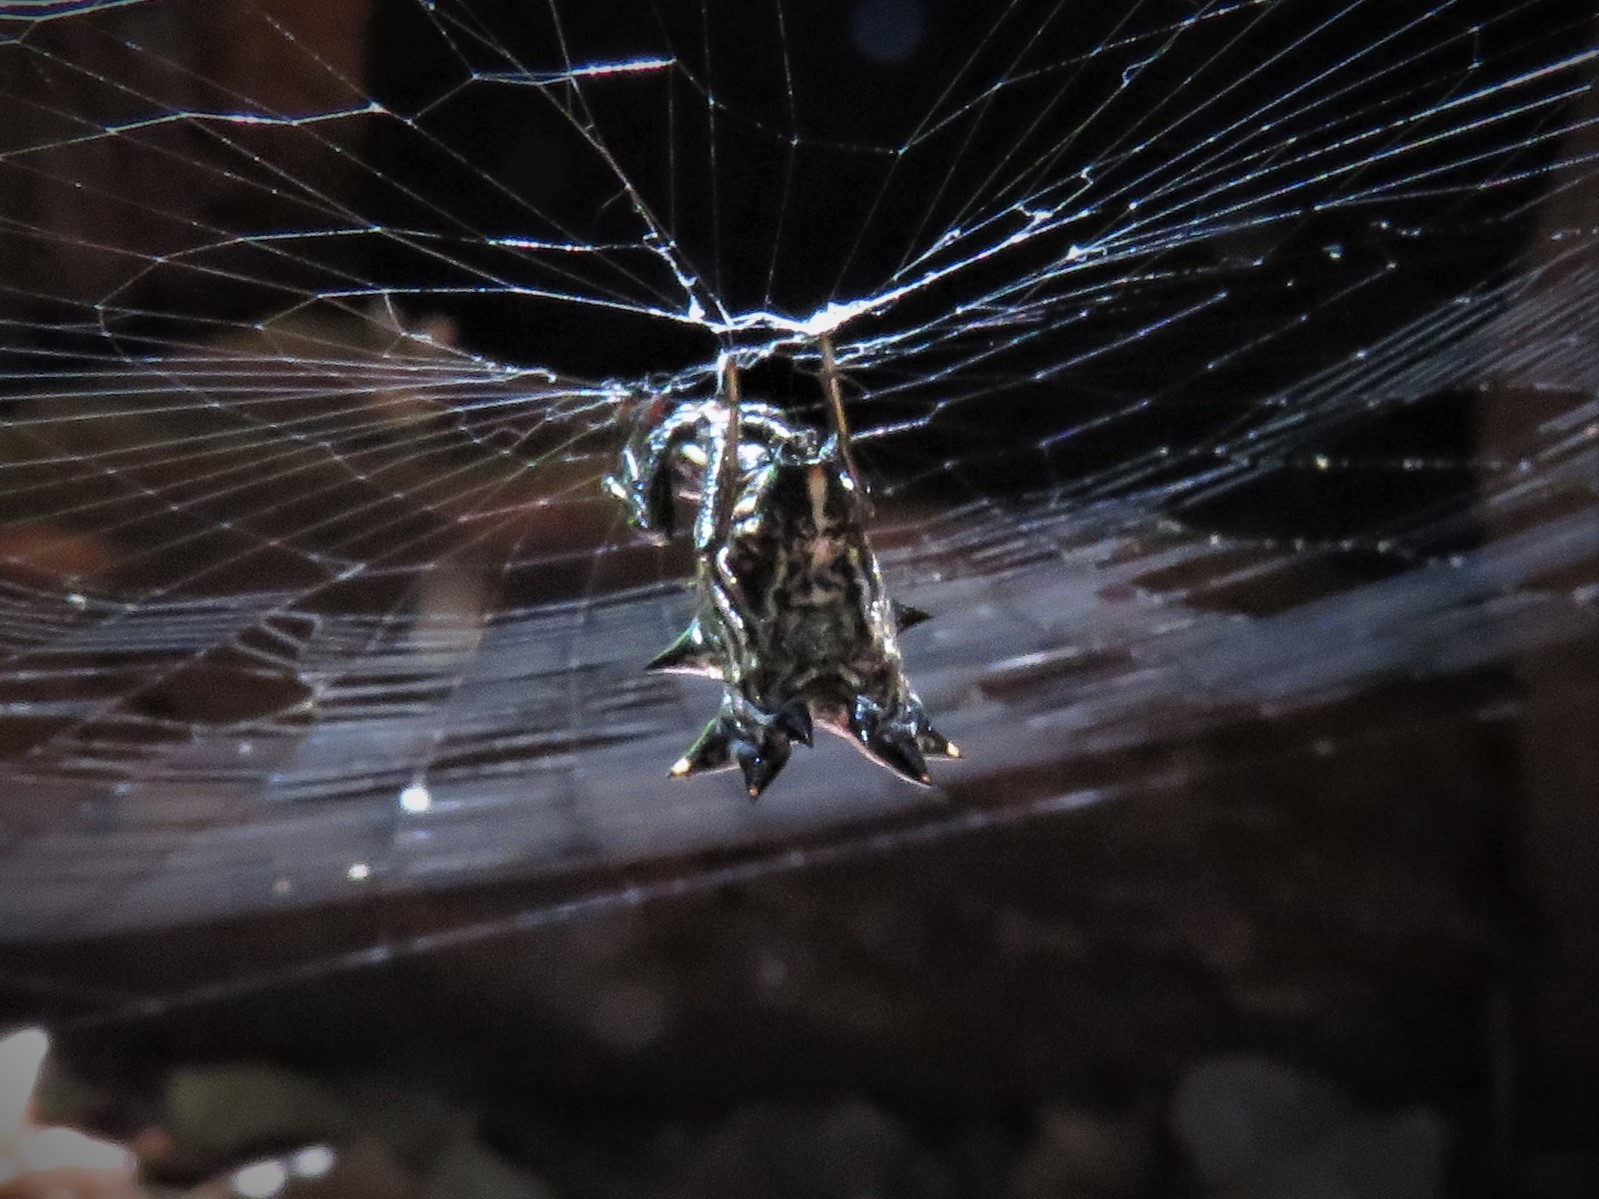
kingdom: Animalia
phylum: Arthropoda
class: Arachnida
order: Araneae
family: Araneidae
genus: Micrathena
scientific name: Micrathena gracilis
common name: Orb weavers
